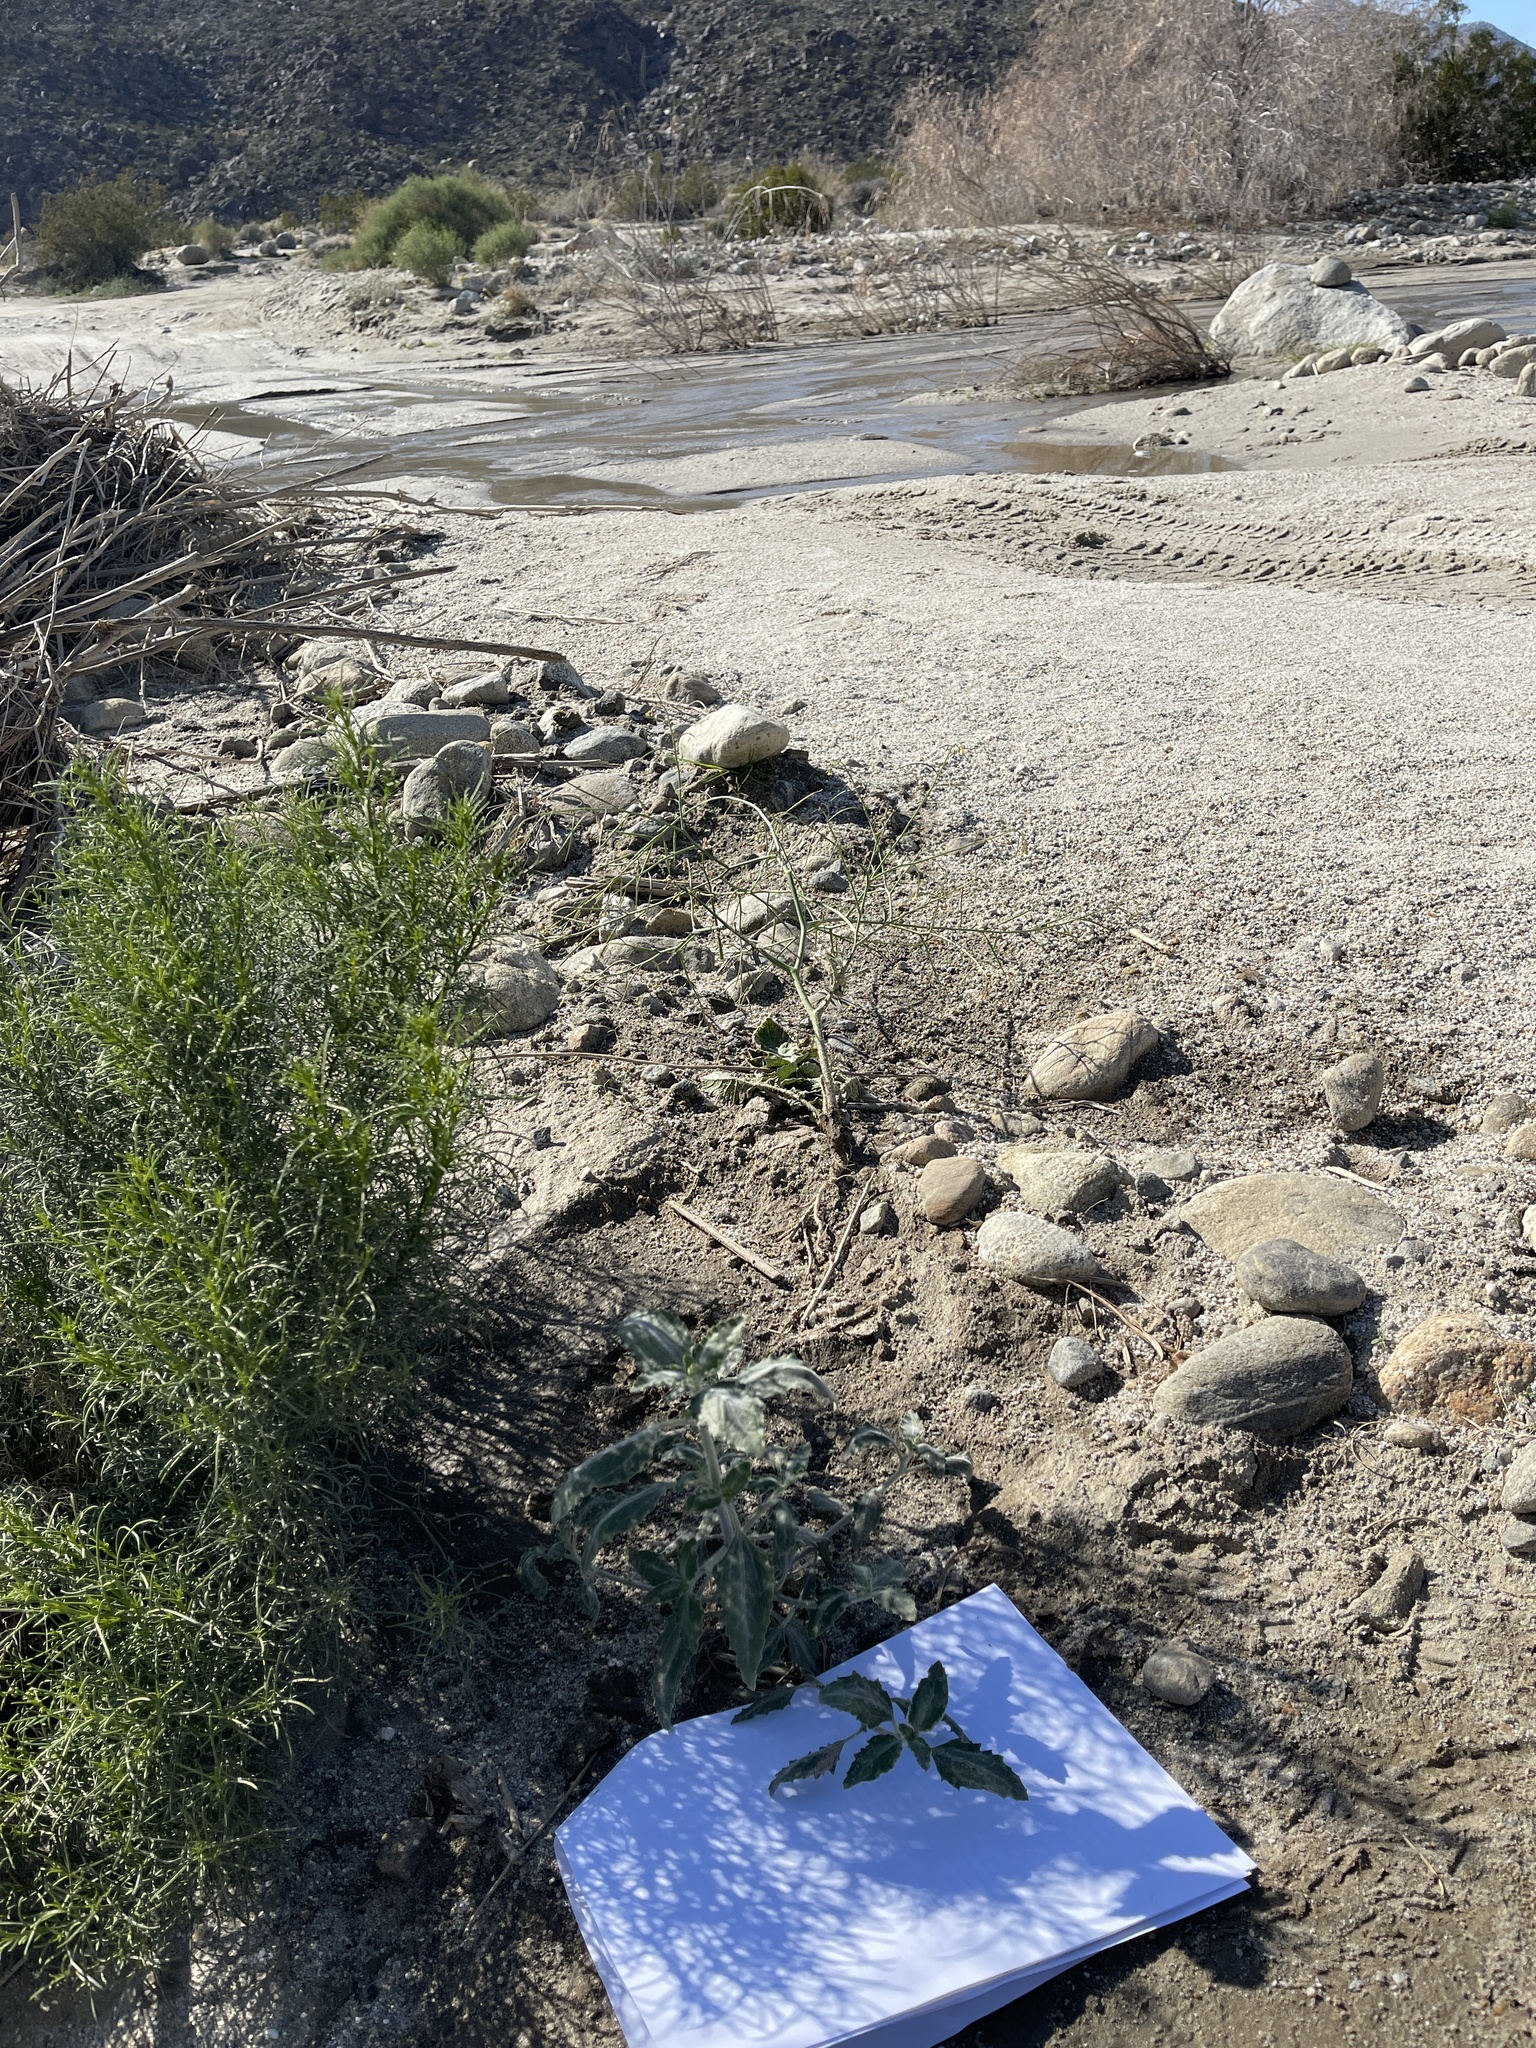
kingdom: Plantae
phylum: Tracheophyta
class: Magnoliopsida
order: Asterales
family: Asteraceae
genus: Dicoria
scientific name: Dicoria canescens
